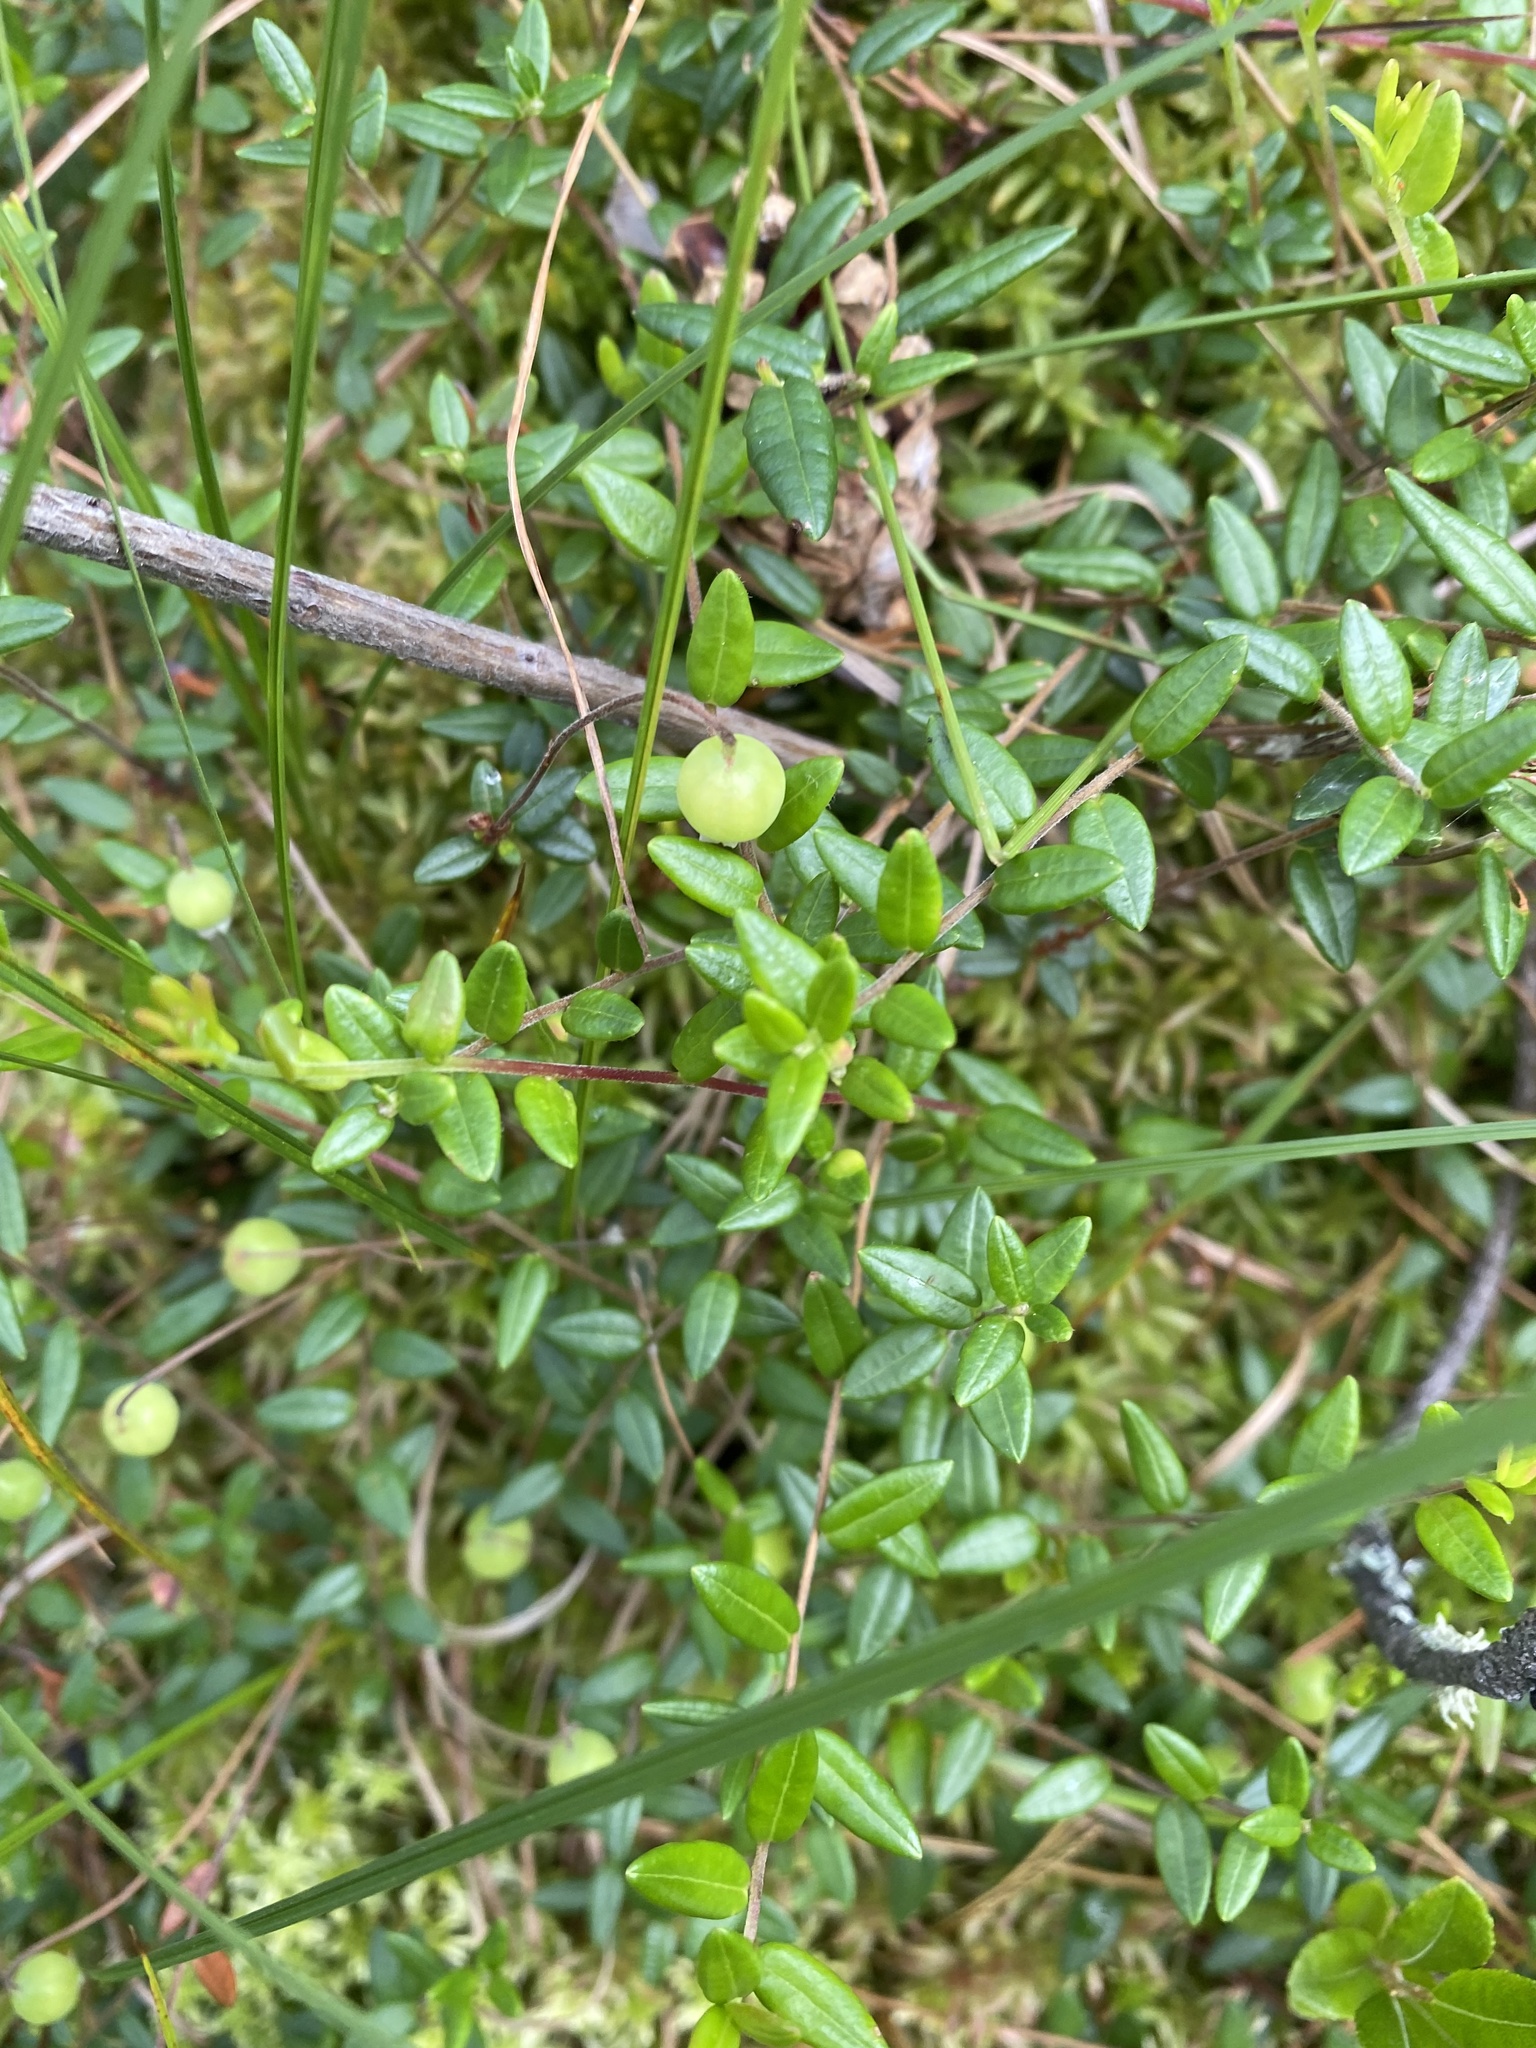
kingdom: Plantae
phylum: Tracheophyta
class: Magnoliopsida
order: Ericales
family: Ericaceae
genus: Vaccinium
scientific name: Vaccinium oxycoccos
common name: Cranberry
